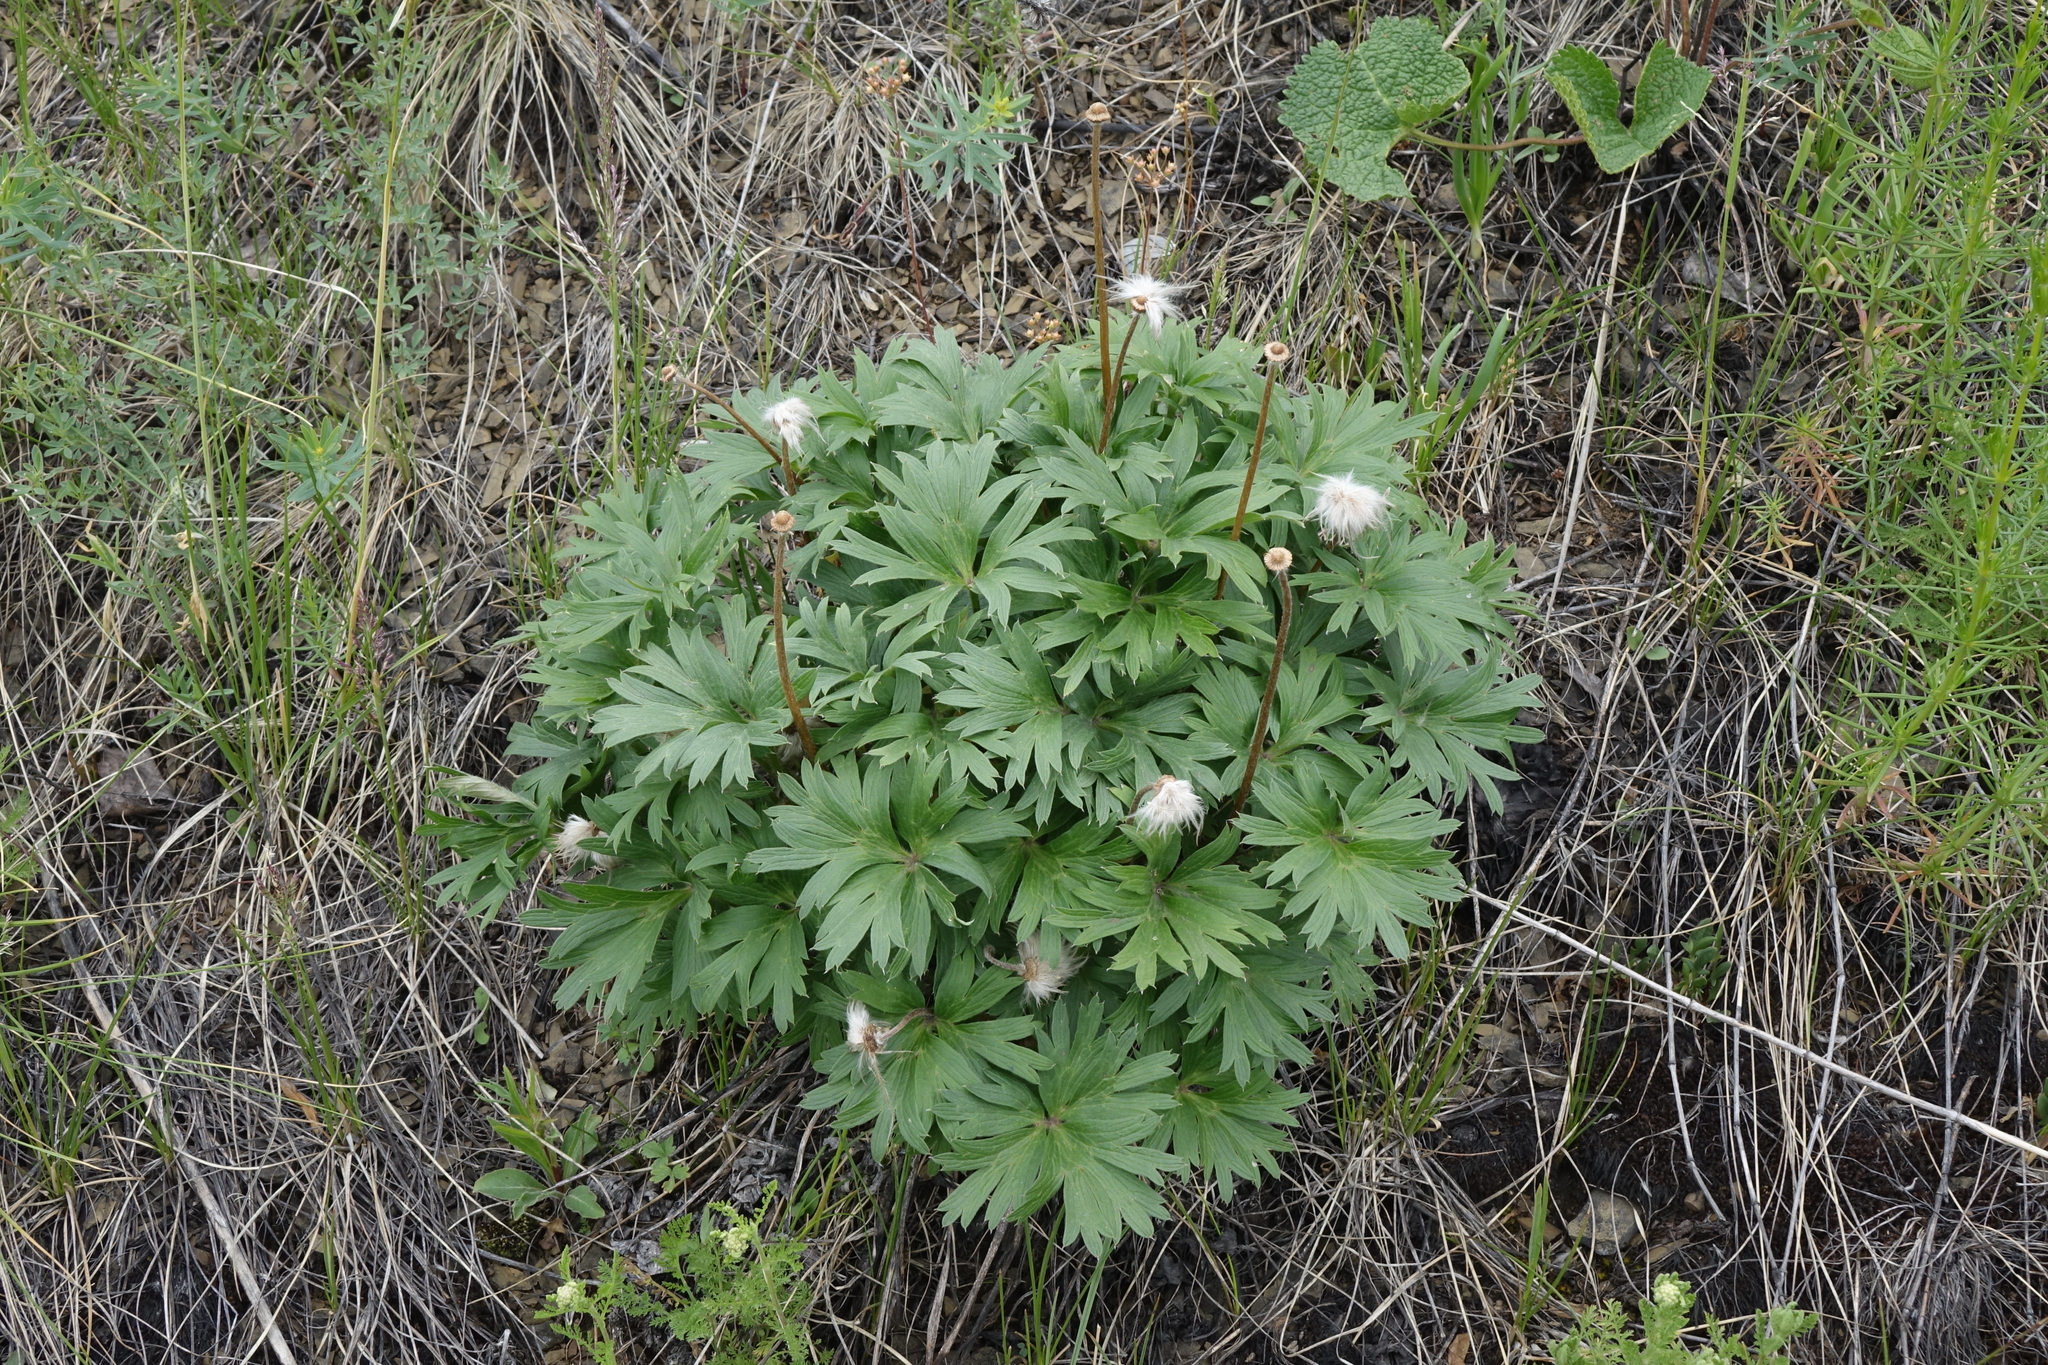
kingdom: Plantae
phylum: Tracheophyta
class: Magnoliopsida
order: Ranunculales
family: Ranunculaceae
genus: Pulsatilla
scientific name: Pulsatilla patens
